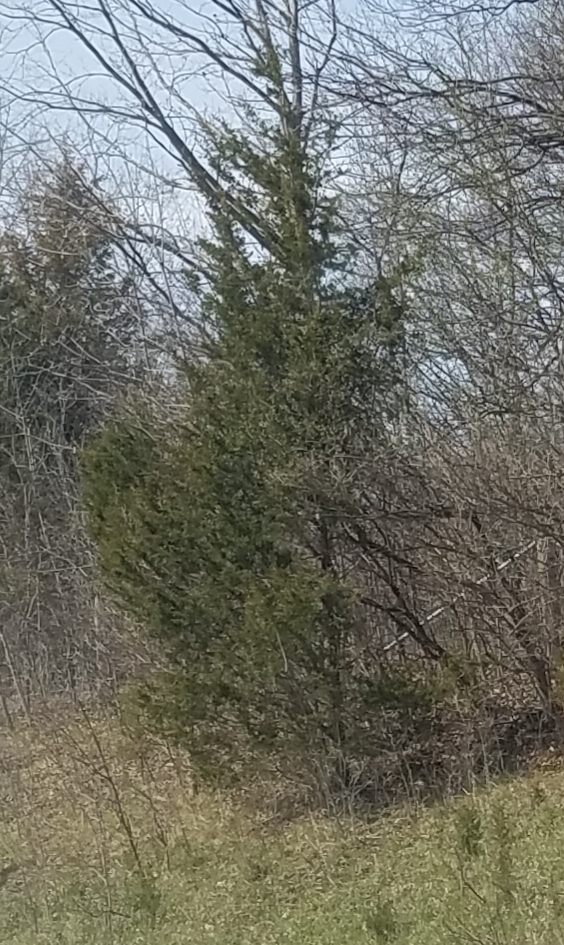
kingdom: Plantae
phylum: Tracheophyta
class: Pinopsida
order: Pinales
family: Cupressaceae
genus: Juniperus
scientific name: Juniperus virginiana
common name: Red juniper
